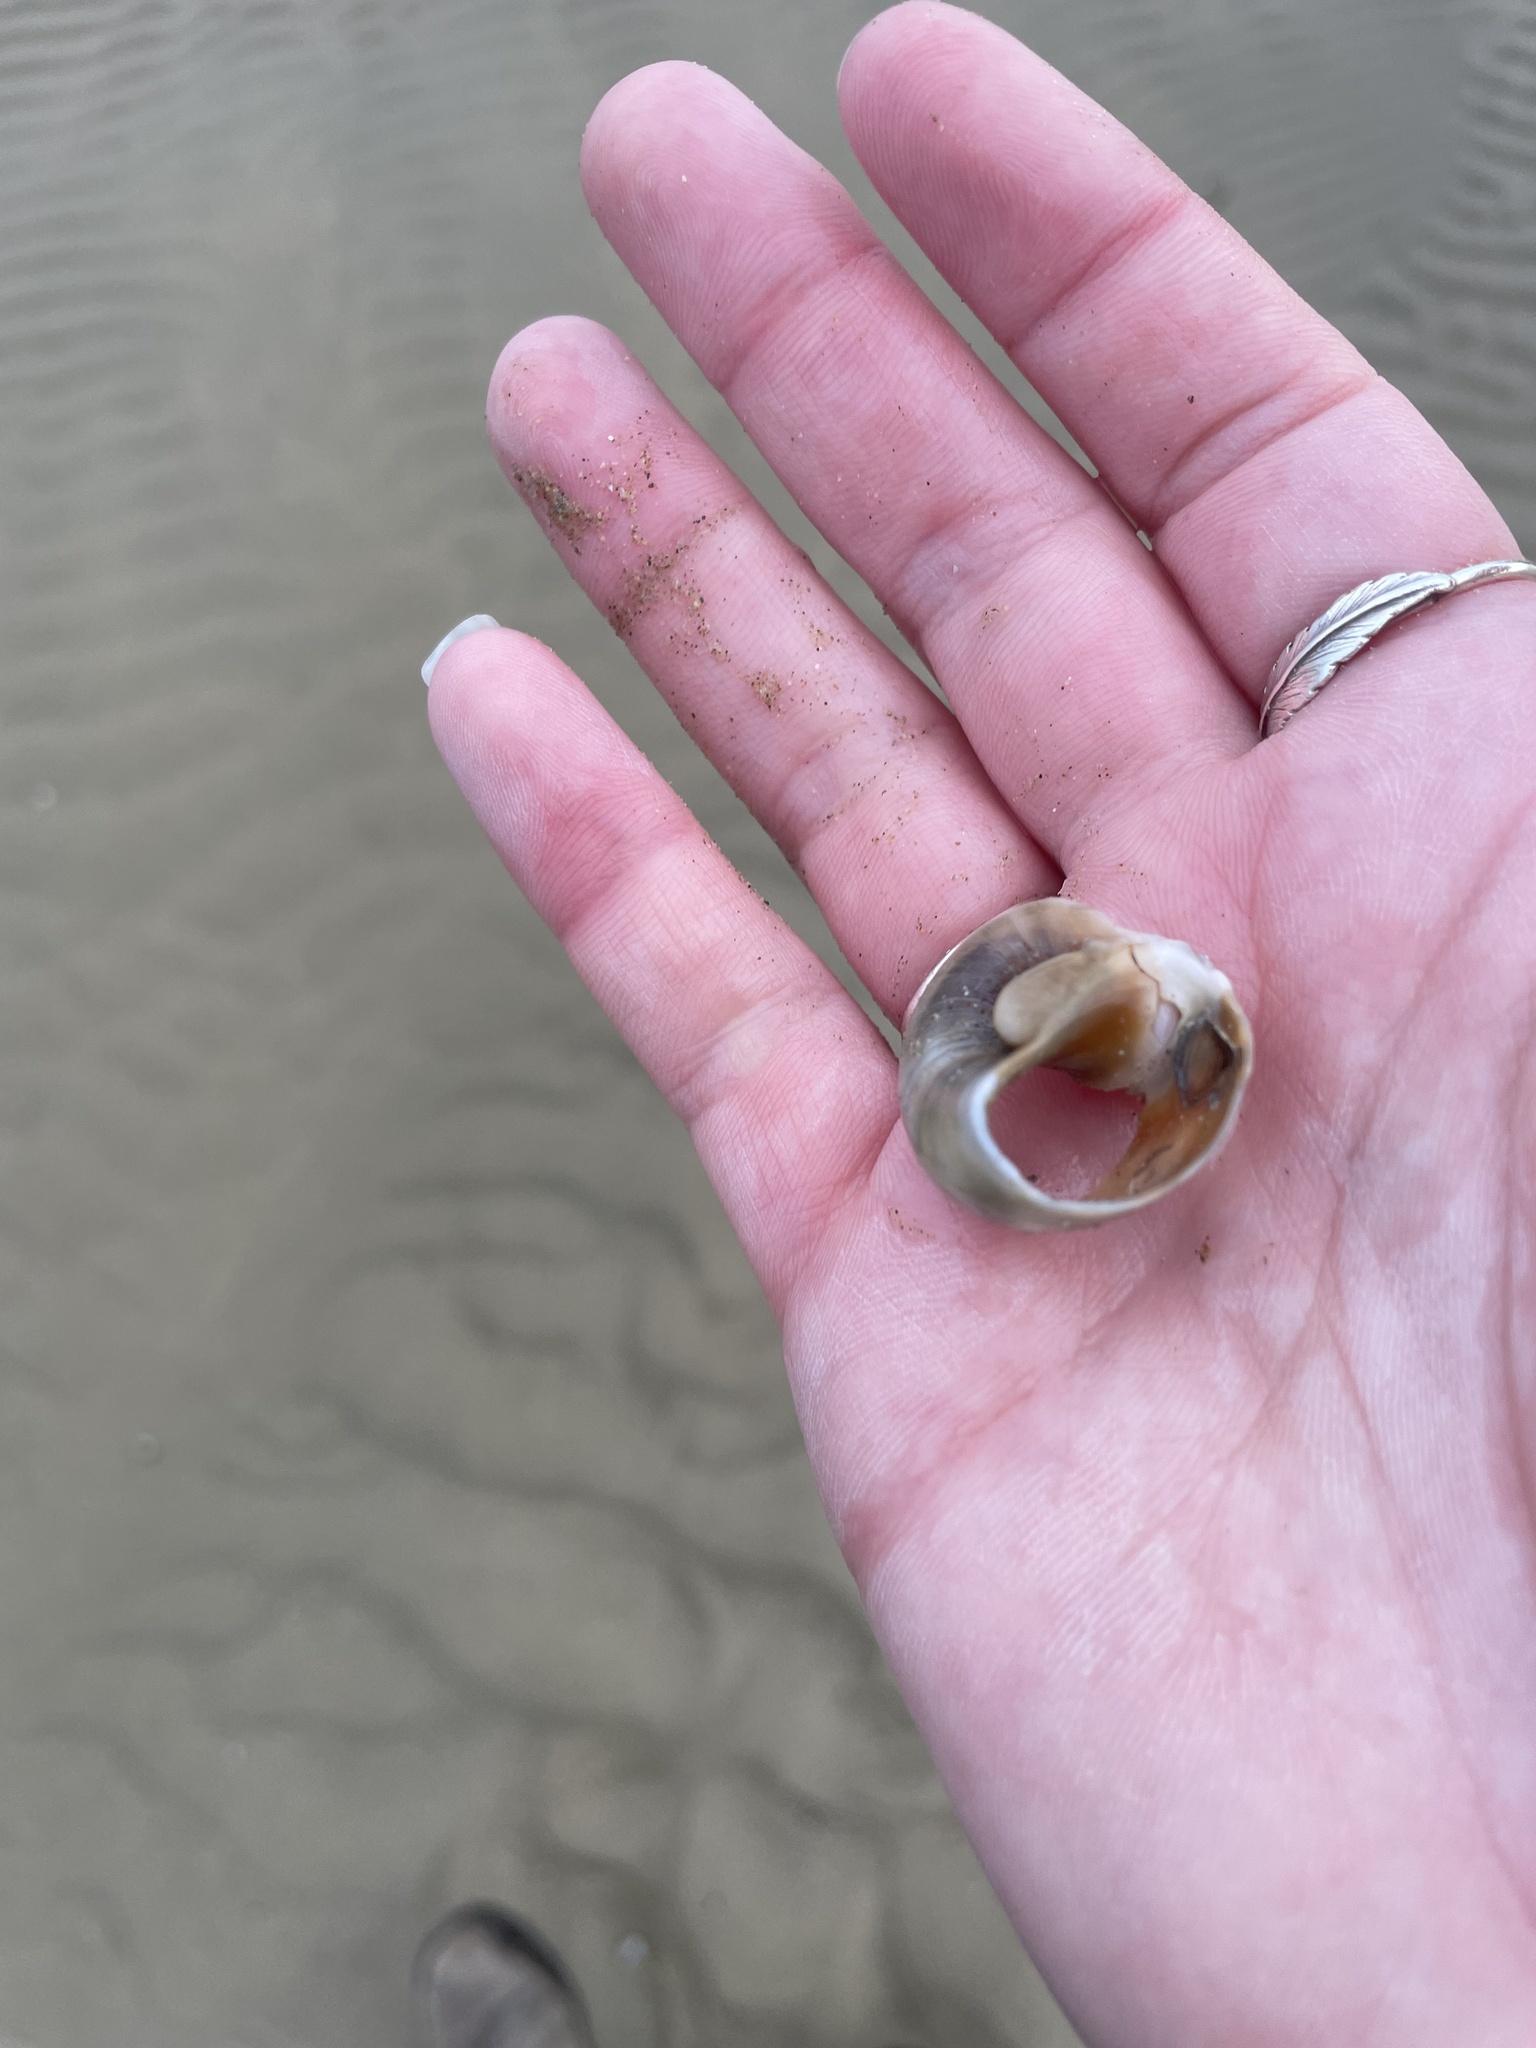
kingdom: Animalia
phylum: Mollusca
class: Gastropoda
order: Littorinimorpha
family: Naticidae
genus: Neverita
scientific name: Neverita josephinia
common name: Josephine's moonsnail
